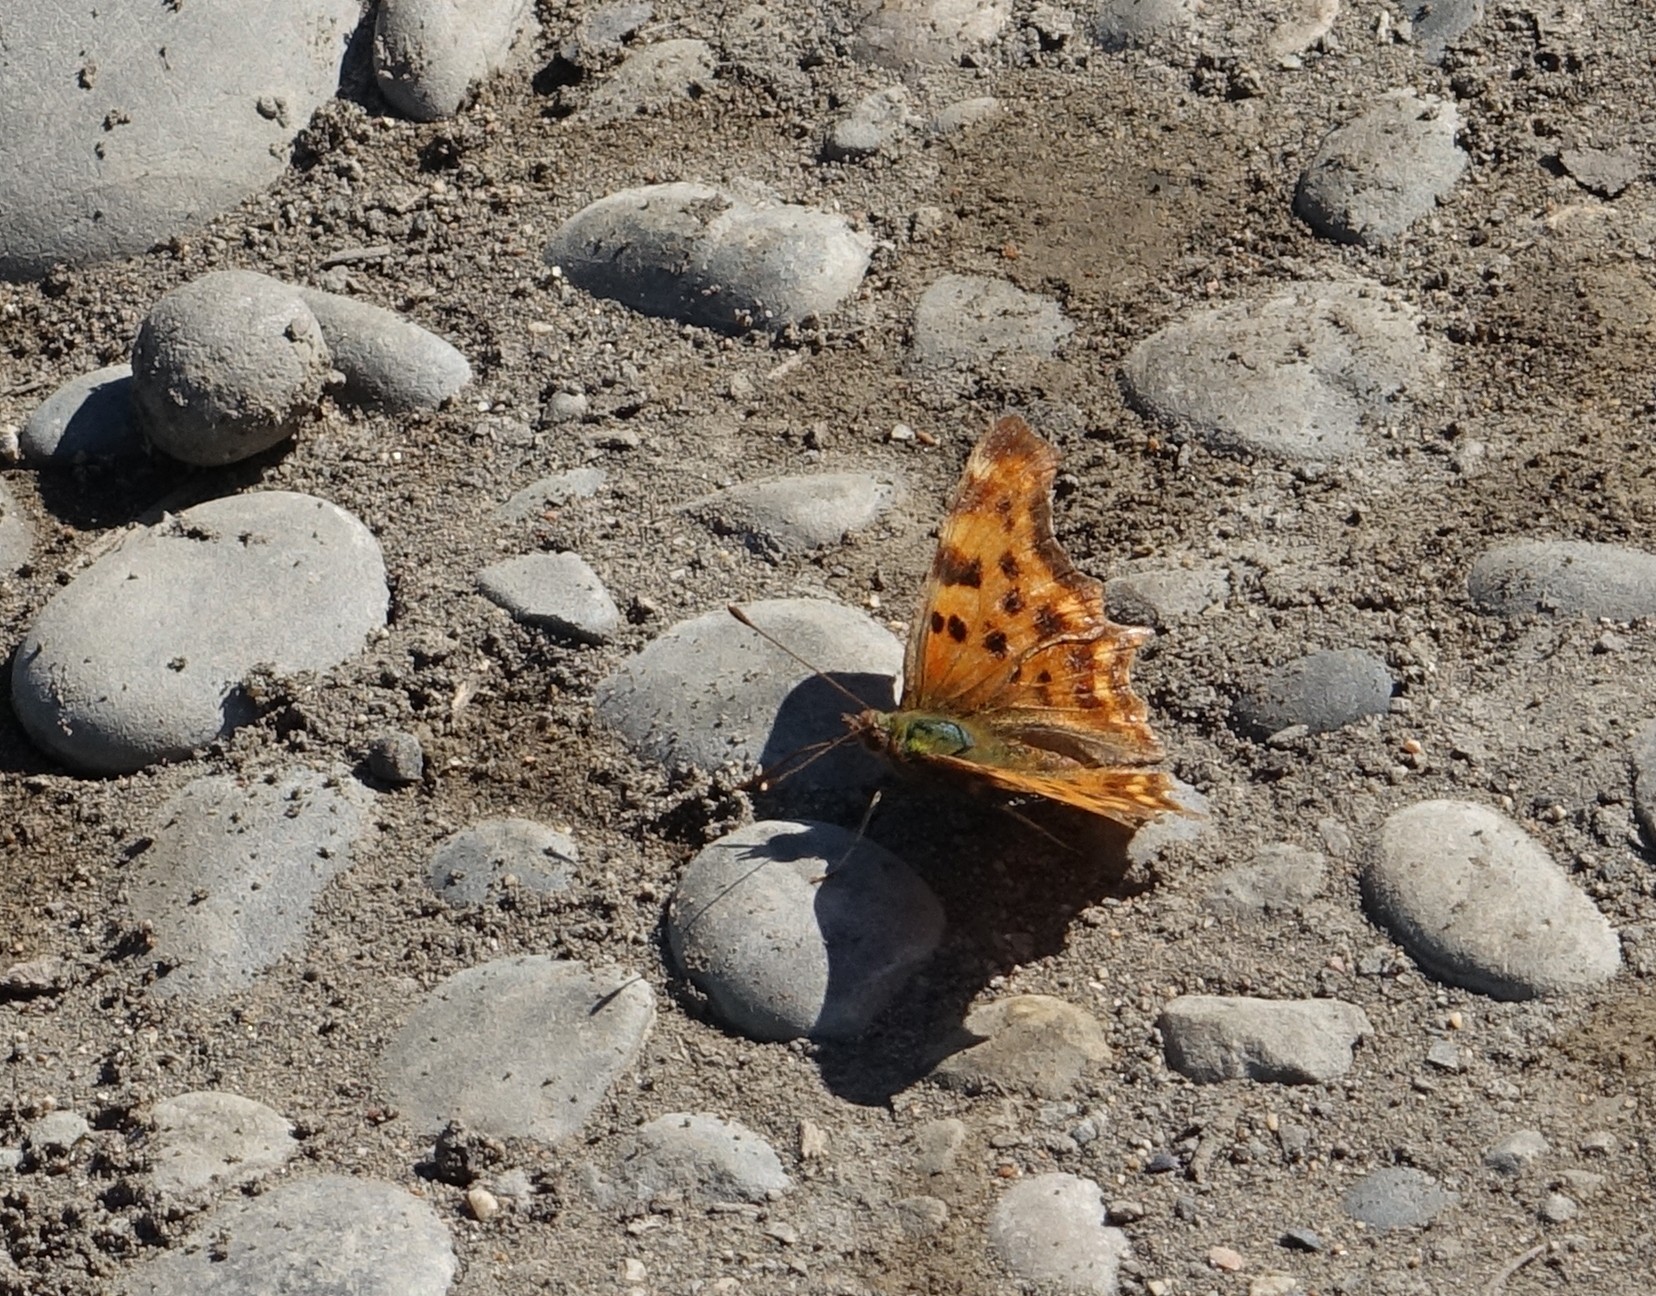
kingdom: Animalia
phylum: Arthropoda
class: Insecta
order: Lepidoptera
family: Nymphalidae
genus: Polygonia
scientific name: Polygonia c-album
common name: Comma
